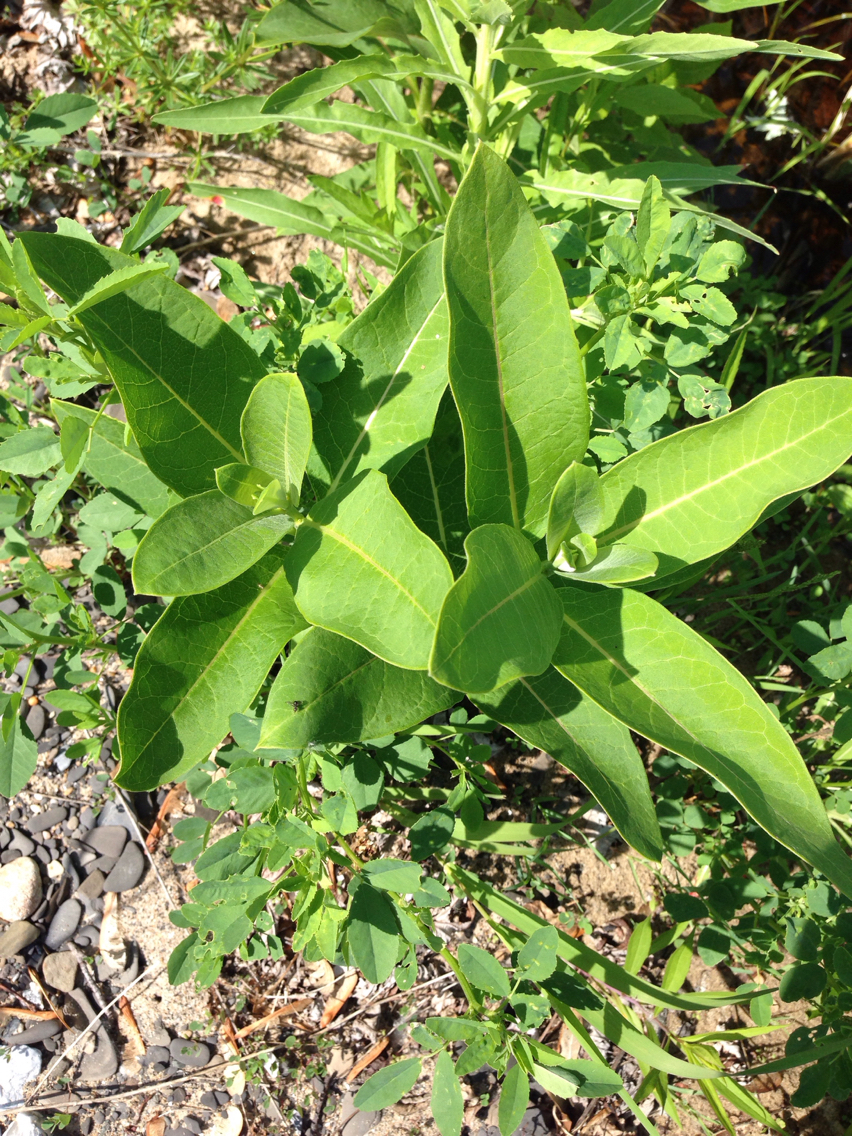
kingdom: Plantae
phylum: Tracheophyta
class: Magnoliopsida
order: Gentianales
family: Apocynaceae
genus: Asclepias
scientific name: Asclepias syriaca
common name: Common milkweed
